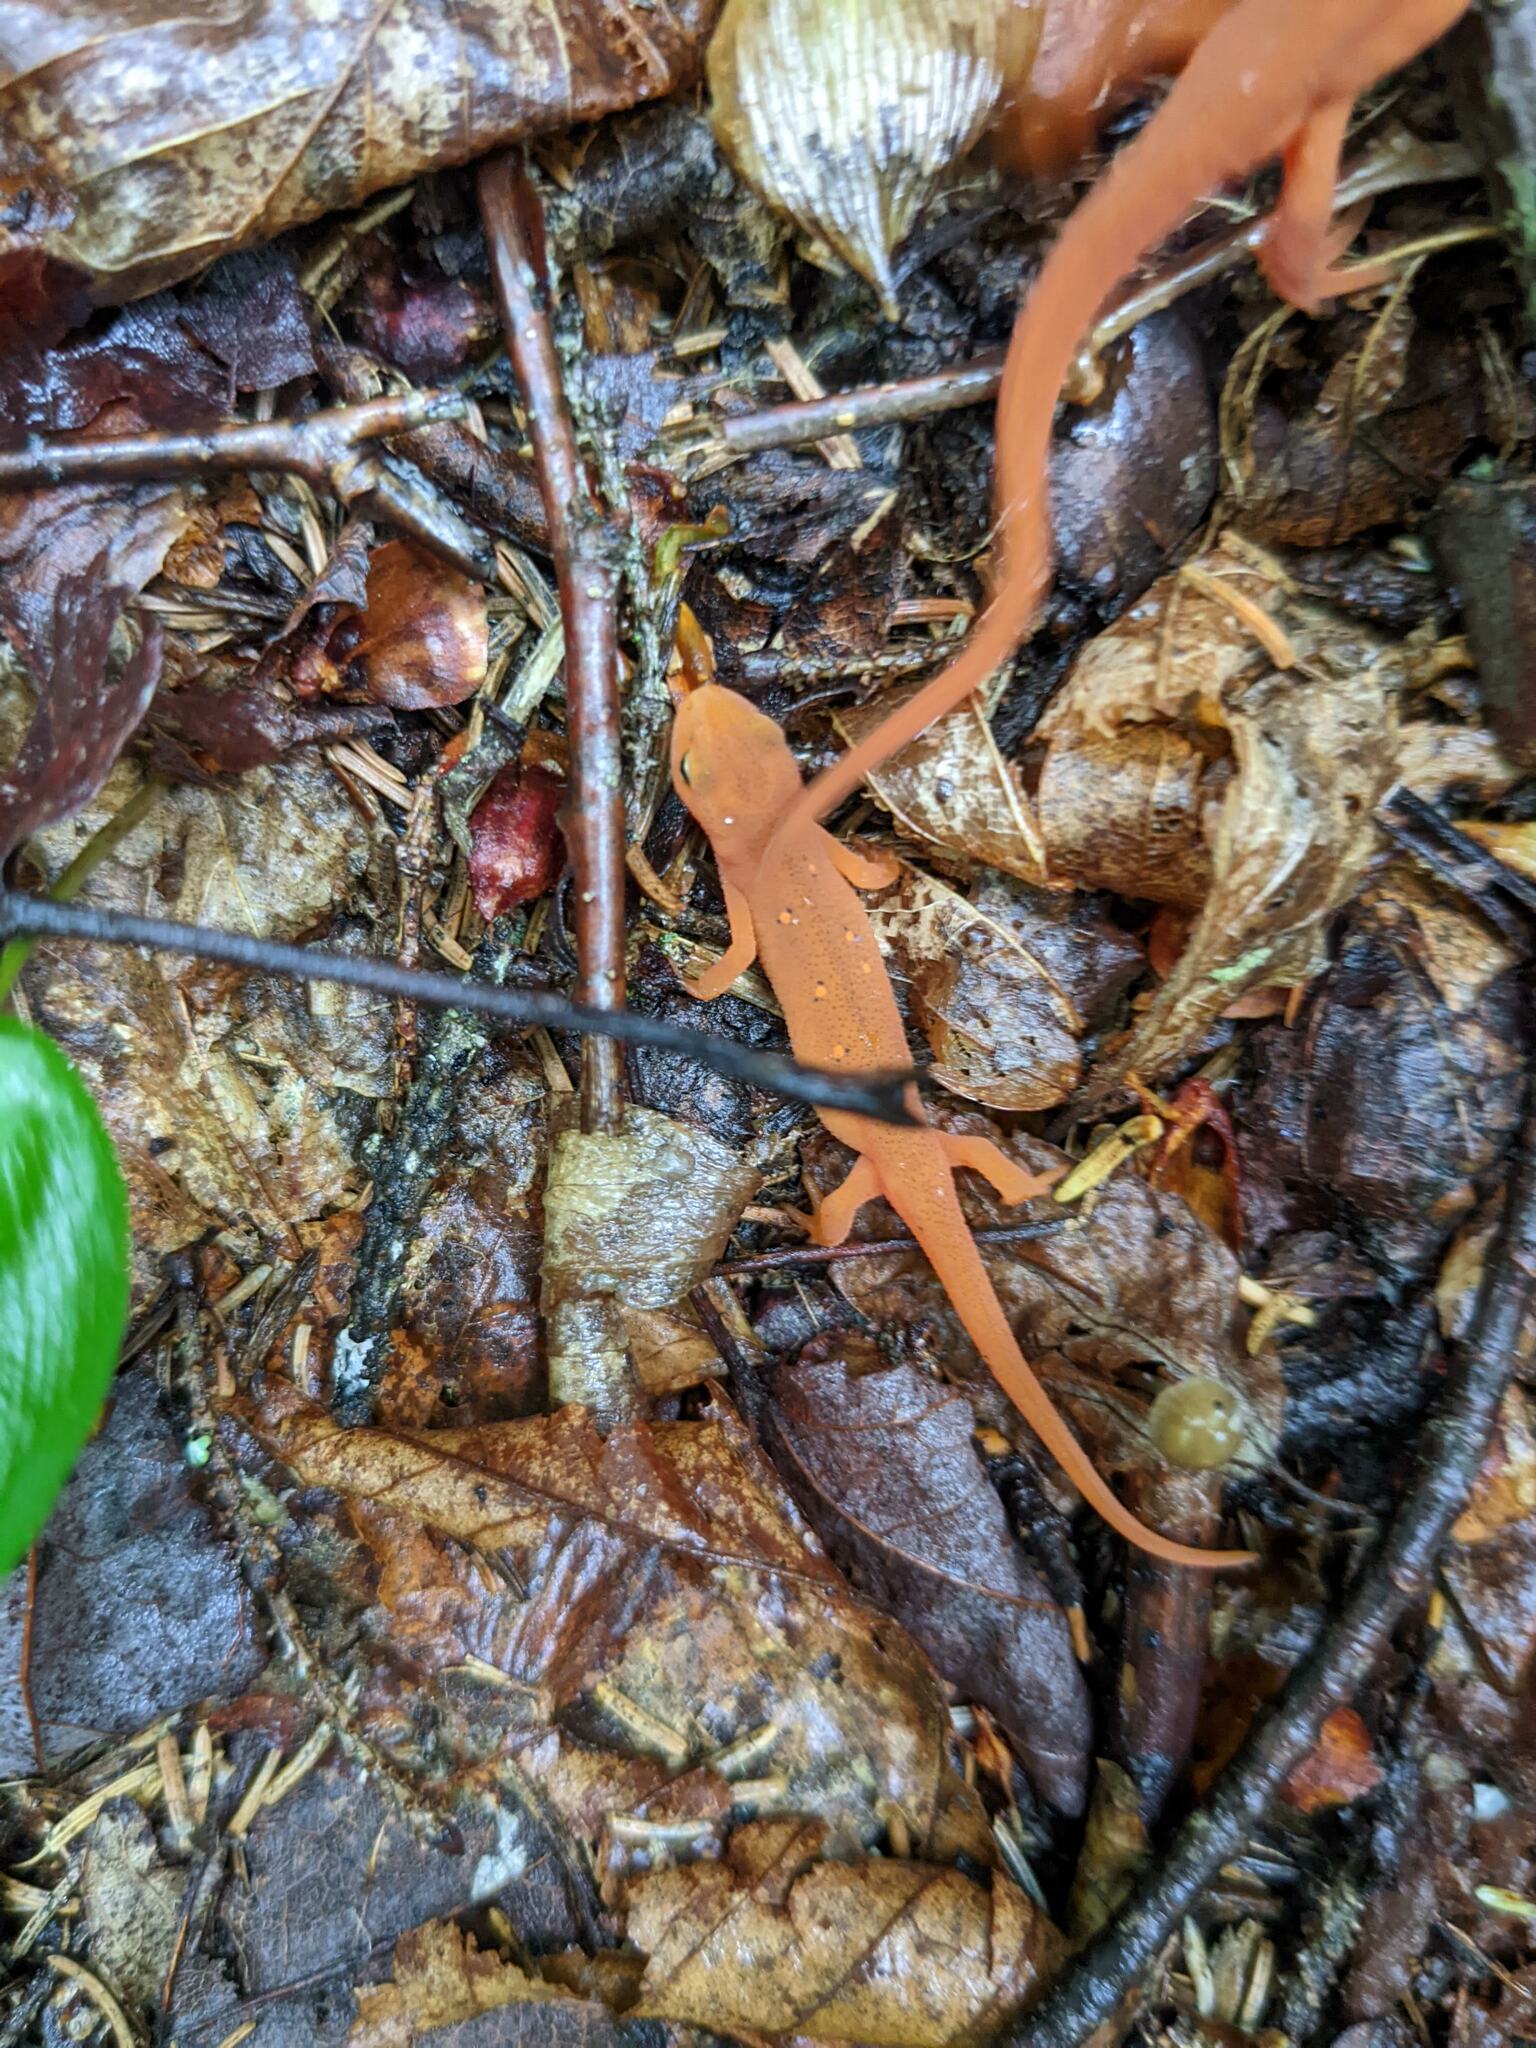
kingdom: Animalia
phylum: Chordata
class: Amphibia
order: Caudata
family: Salamandridae
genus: Notophthalmus
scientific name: Notophthalmus viridescens
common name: Eastern newt
